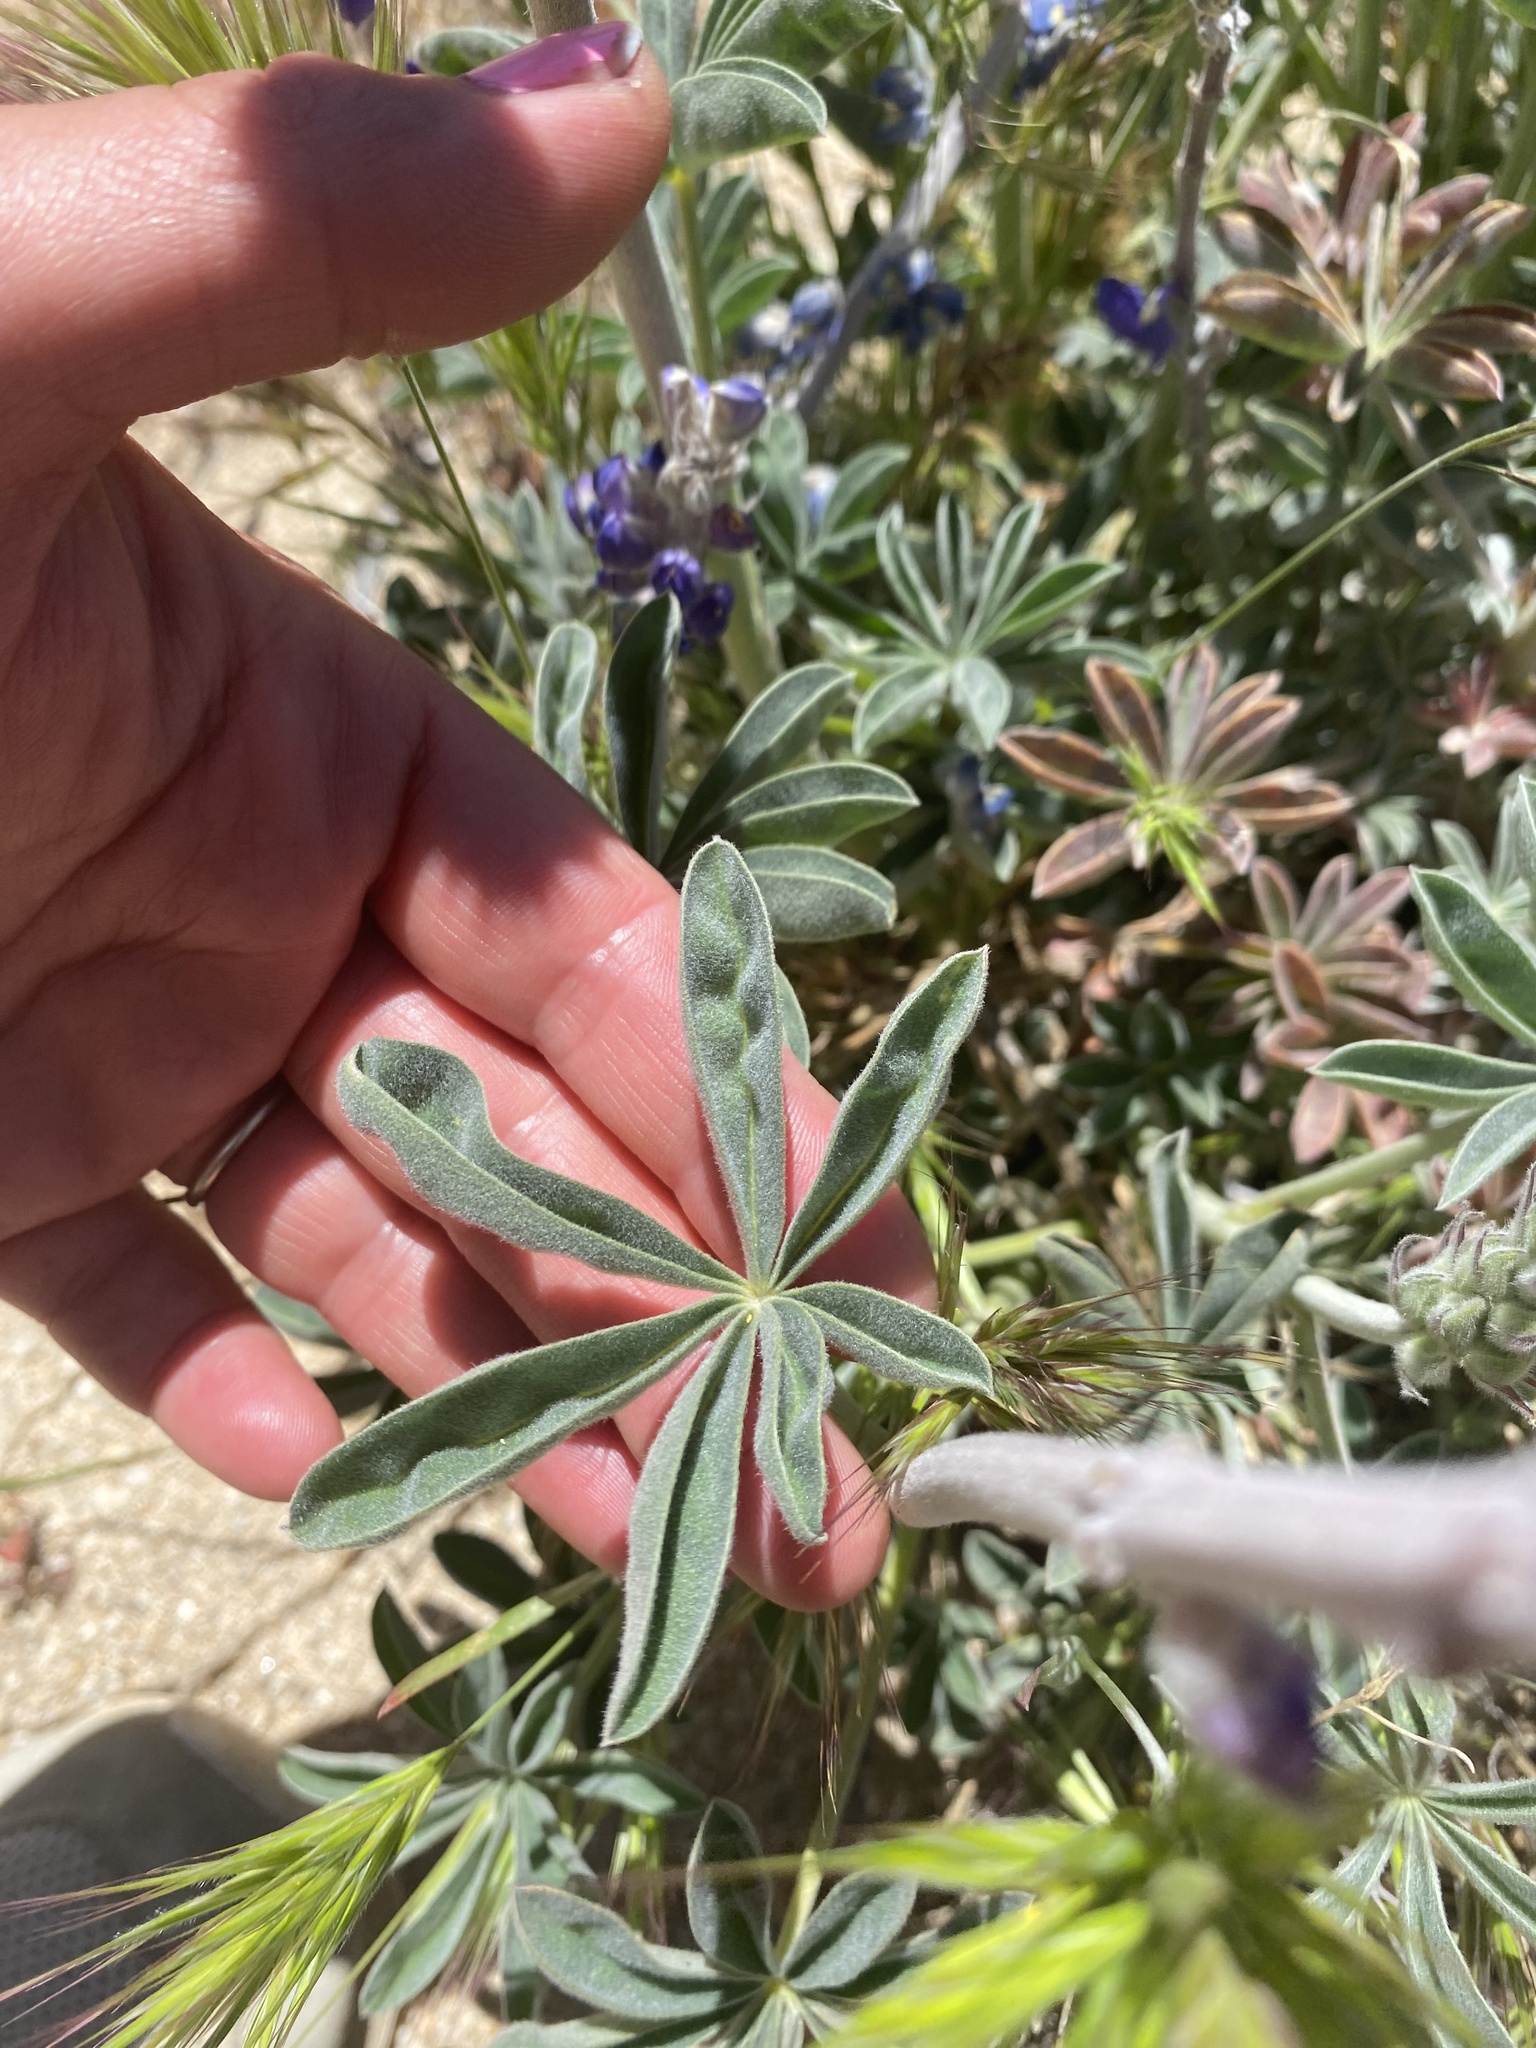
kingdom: Plantae
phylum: Tracheophyta
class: Magnoliopsida
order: Fabales
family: Fabaceae
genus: Lupinus
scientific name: Lupinus excubitus
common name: Grape soda lupine
